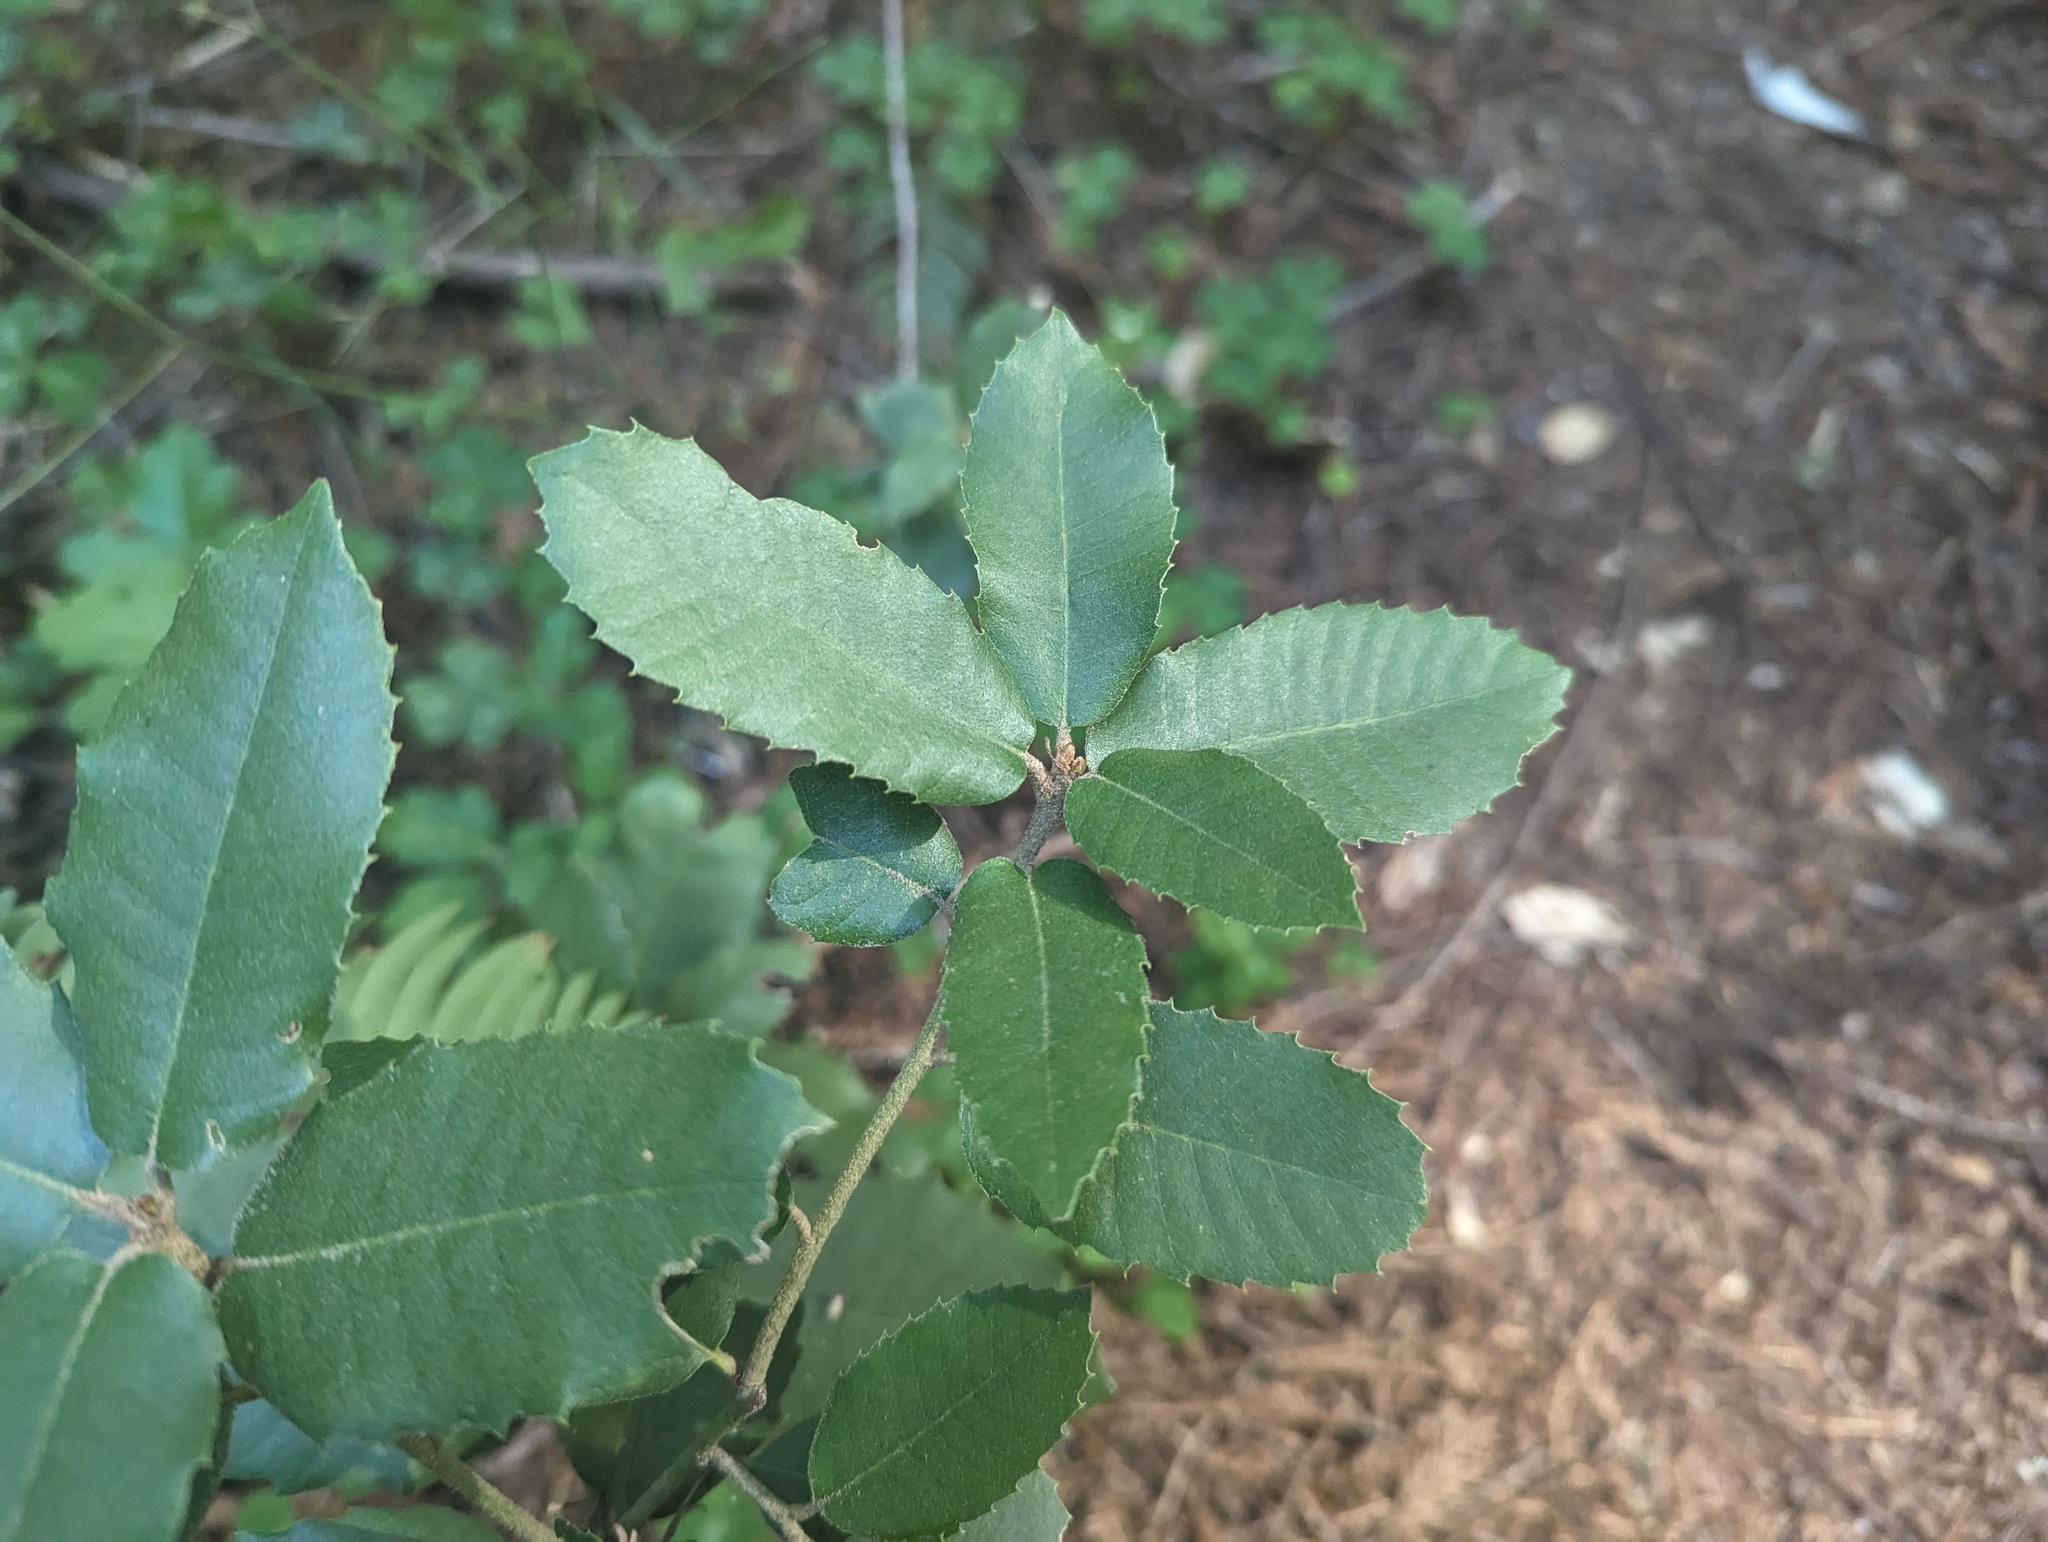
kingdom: Plantae
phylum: Tracheophyta
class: Magnoliopsida
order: Fagales
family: Fagaceae
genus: Notholithocarpus
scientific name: Notholithocarpus densiflorus
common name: Tan bark oak
